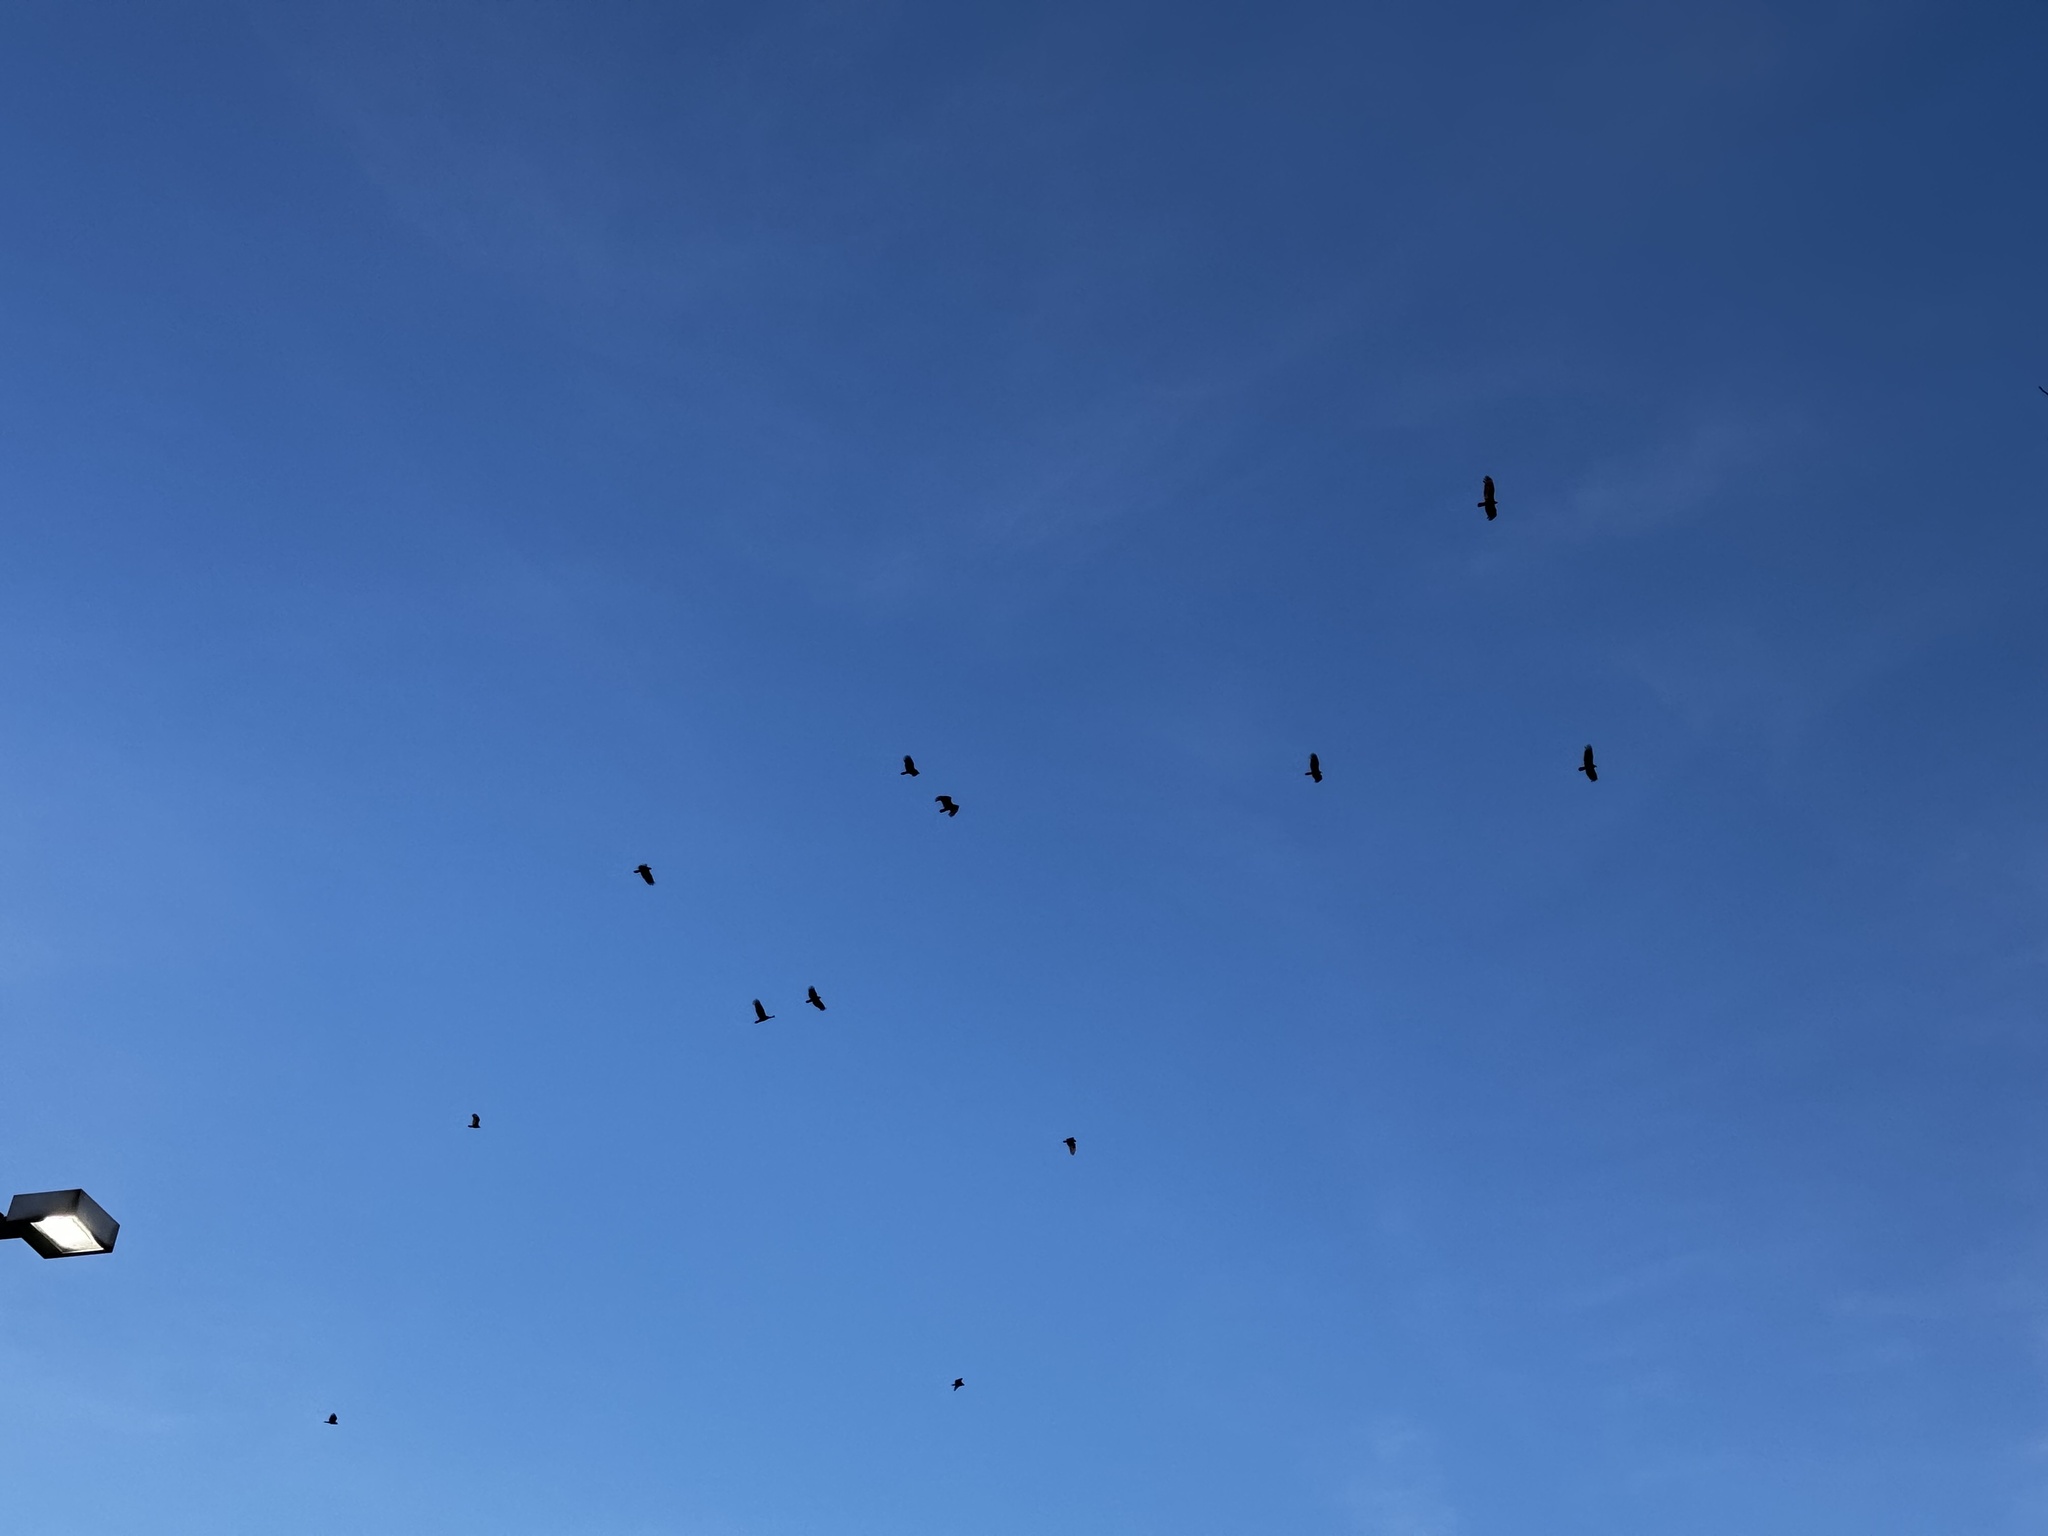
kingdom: Animalia
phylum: Chordata
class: Aves
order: Accipitriformes
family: Cathartidae
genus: Cathartes
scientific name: Cathartes aura
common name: Turkey vulture
